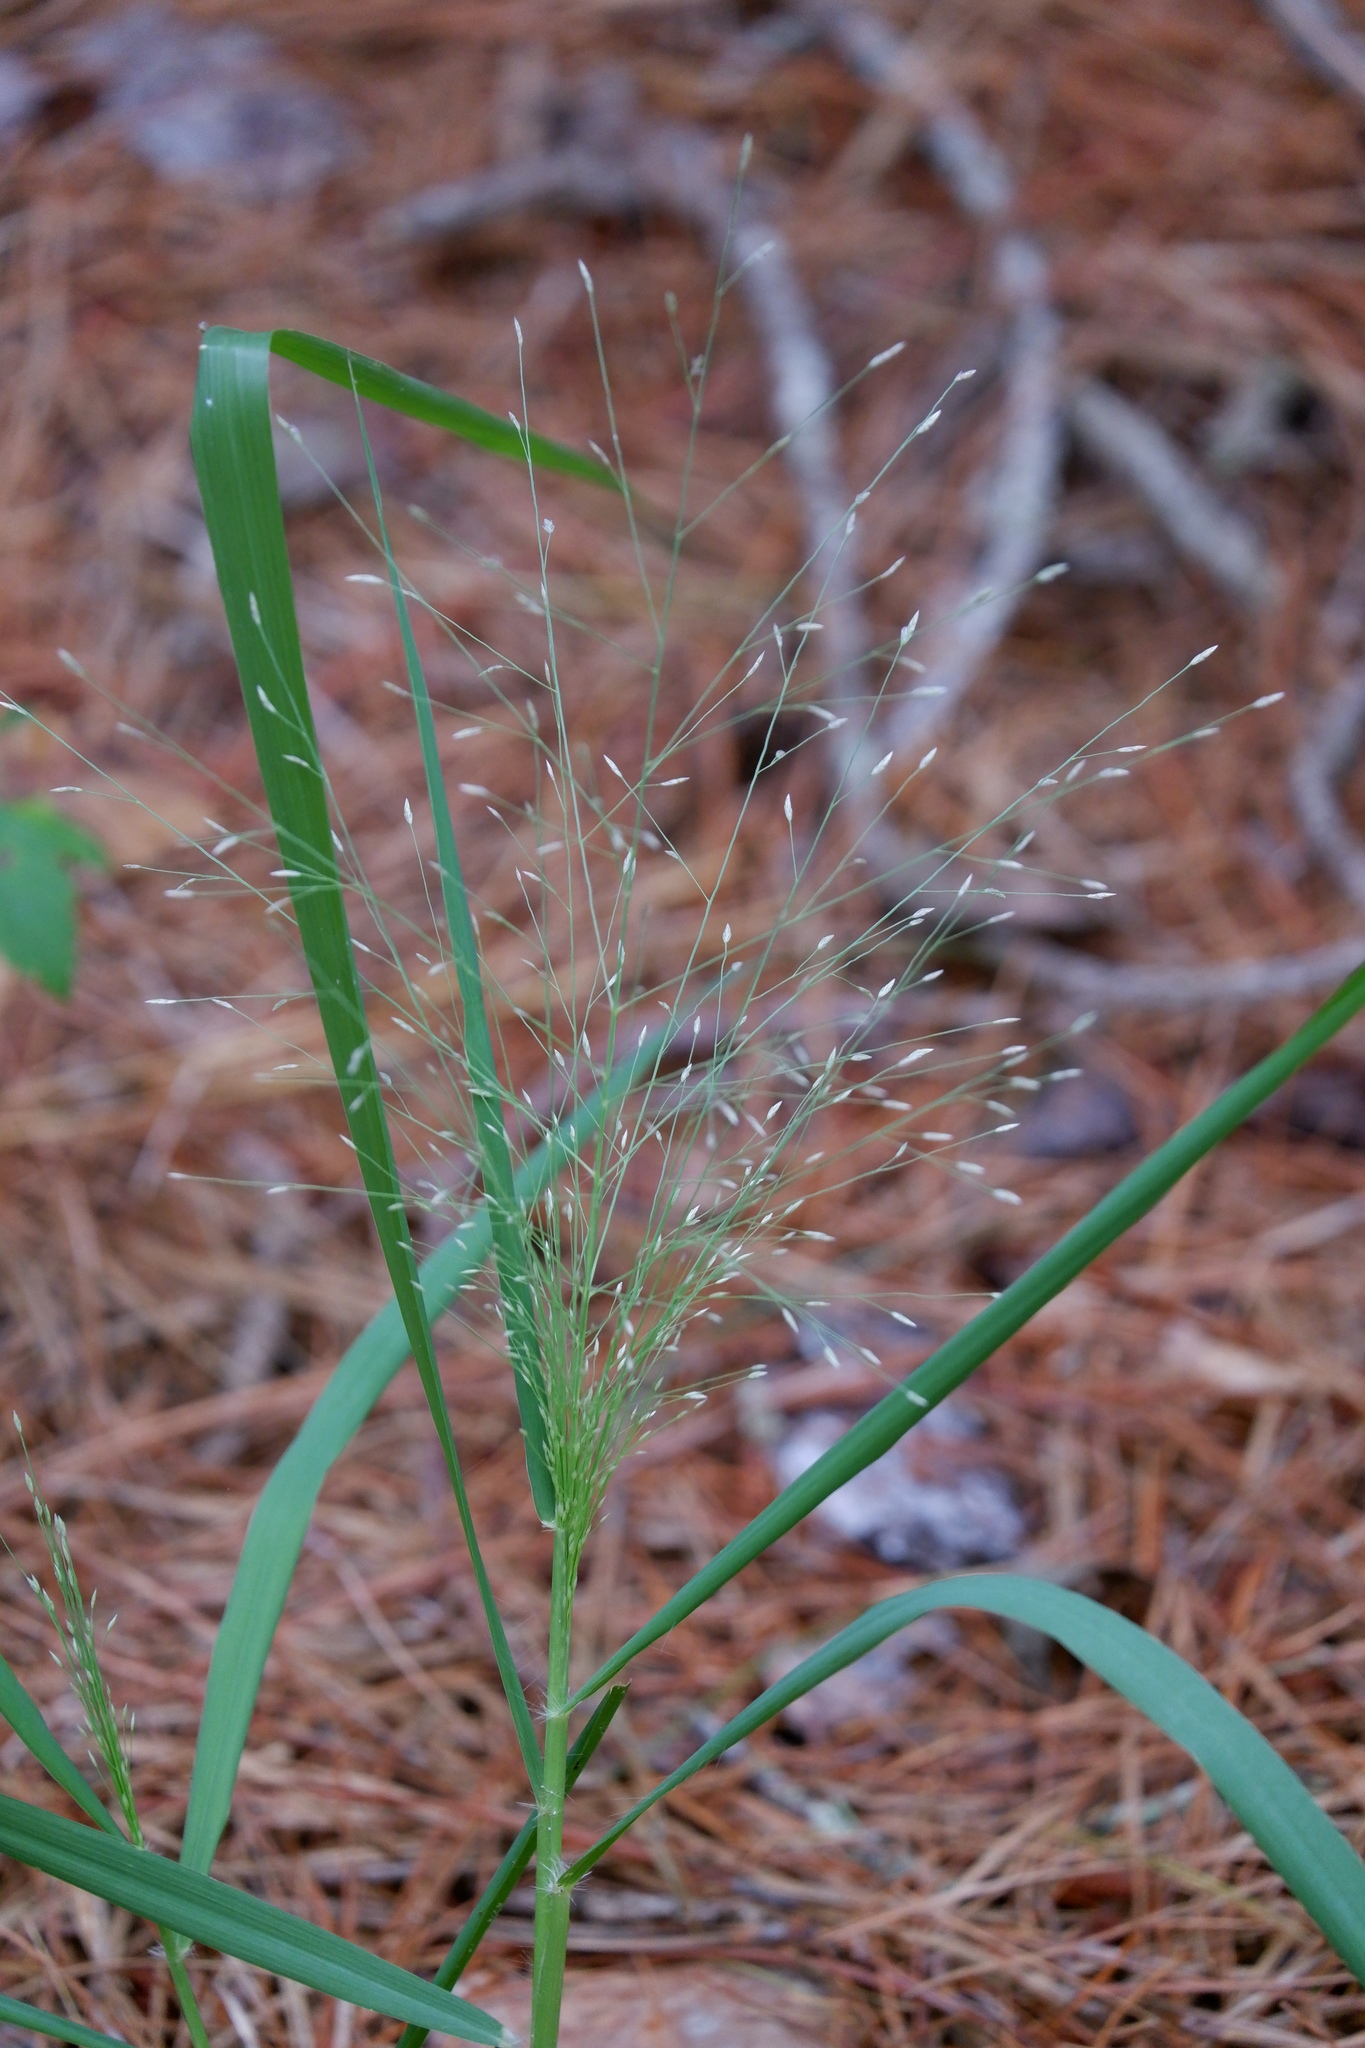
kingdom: Plantae
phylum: Tracheophyta
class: Liliopsida
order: Poales
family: Poaceae
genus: Panicum
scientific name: Panicum capillare
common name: Witch-grass
